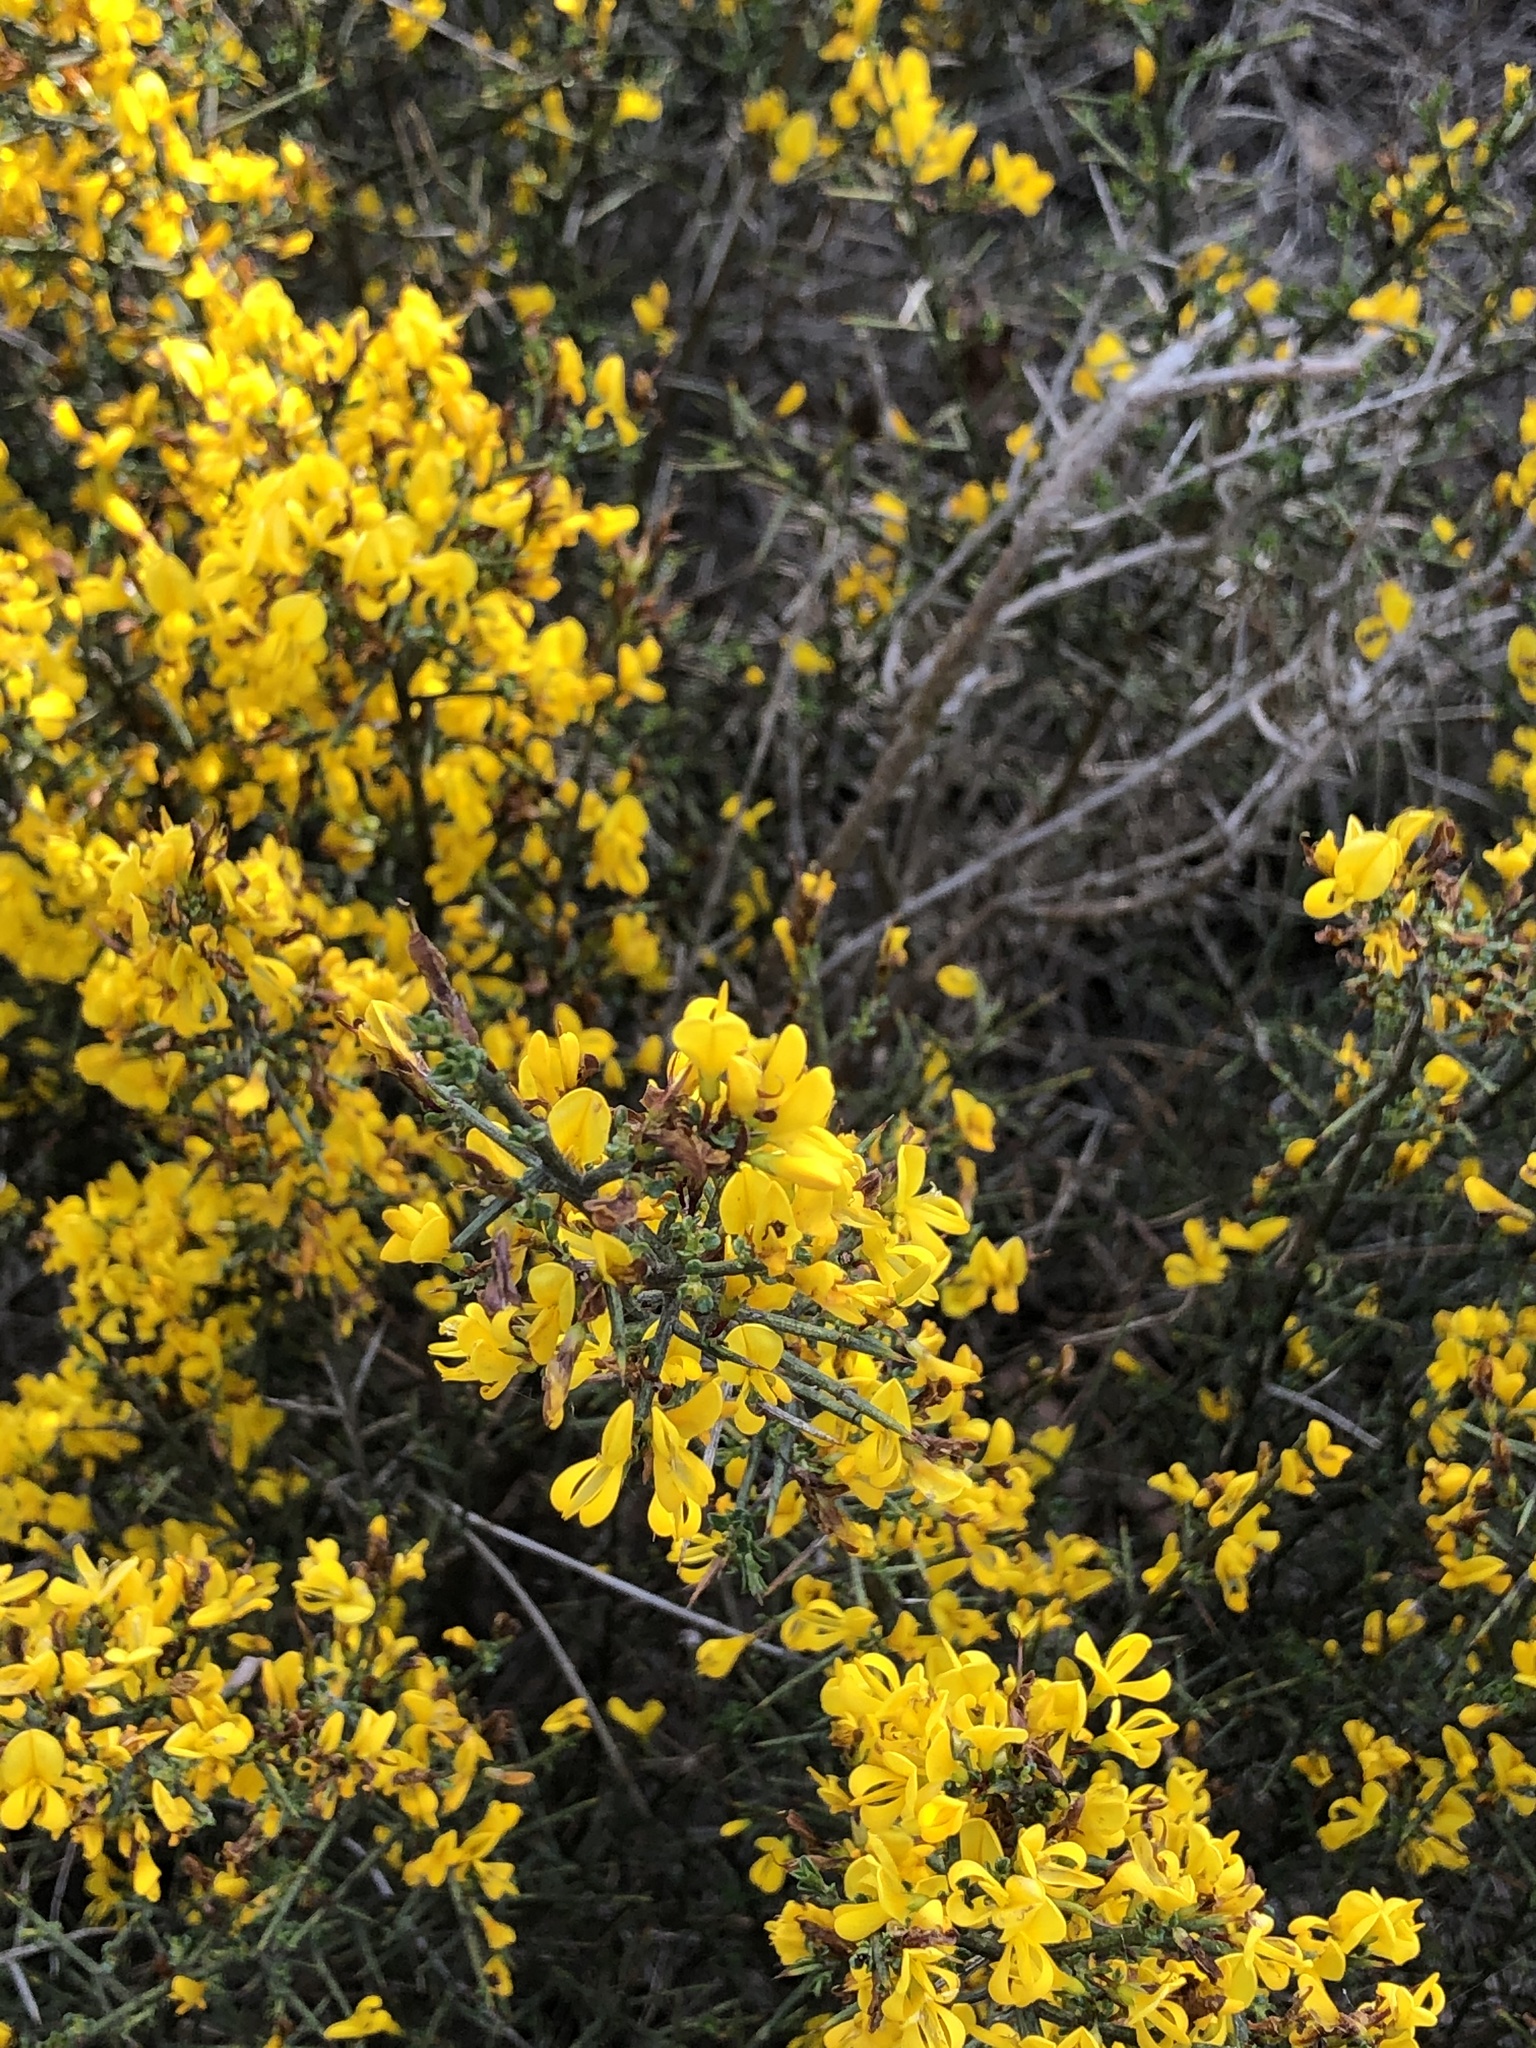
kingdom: Plantae
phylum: Tracheophyta
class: Magnoliopsida
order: Fabales
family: Fabaceae
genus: Genista
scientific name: Genista scorpius
